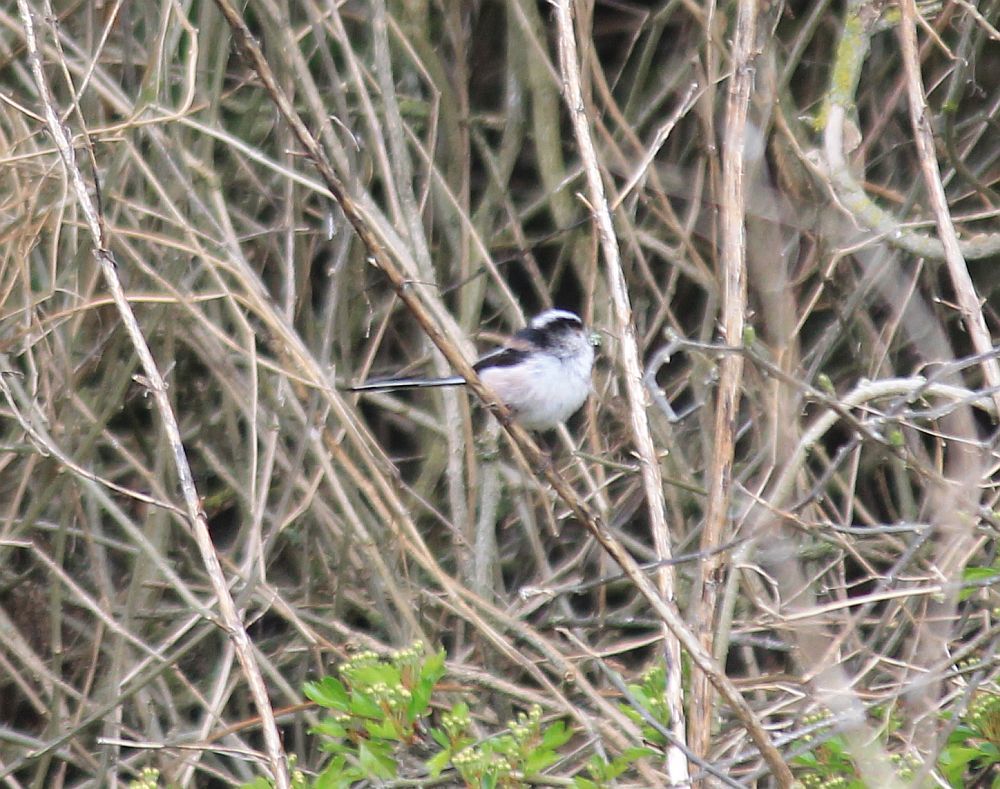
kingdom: Animalia
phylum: Chordata
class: Aves
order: Passeriformes
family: Aegithalidae
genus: Aegithalos
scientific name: Aegithalos caudatus
